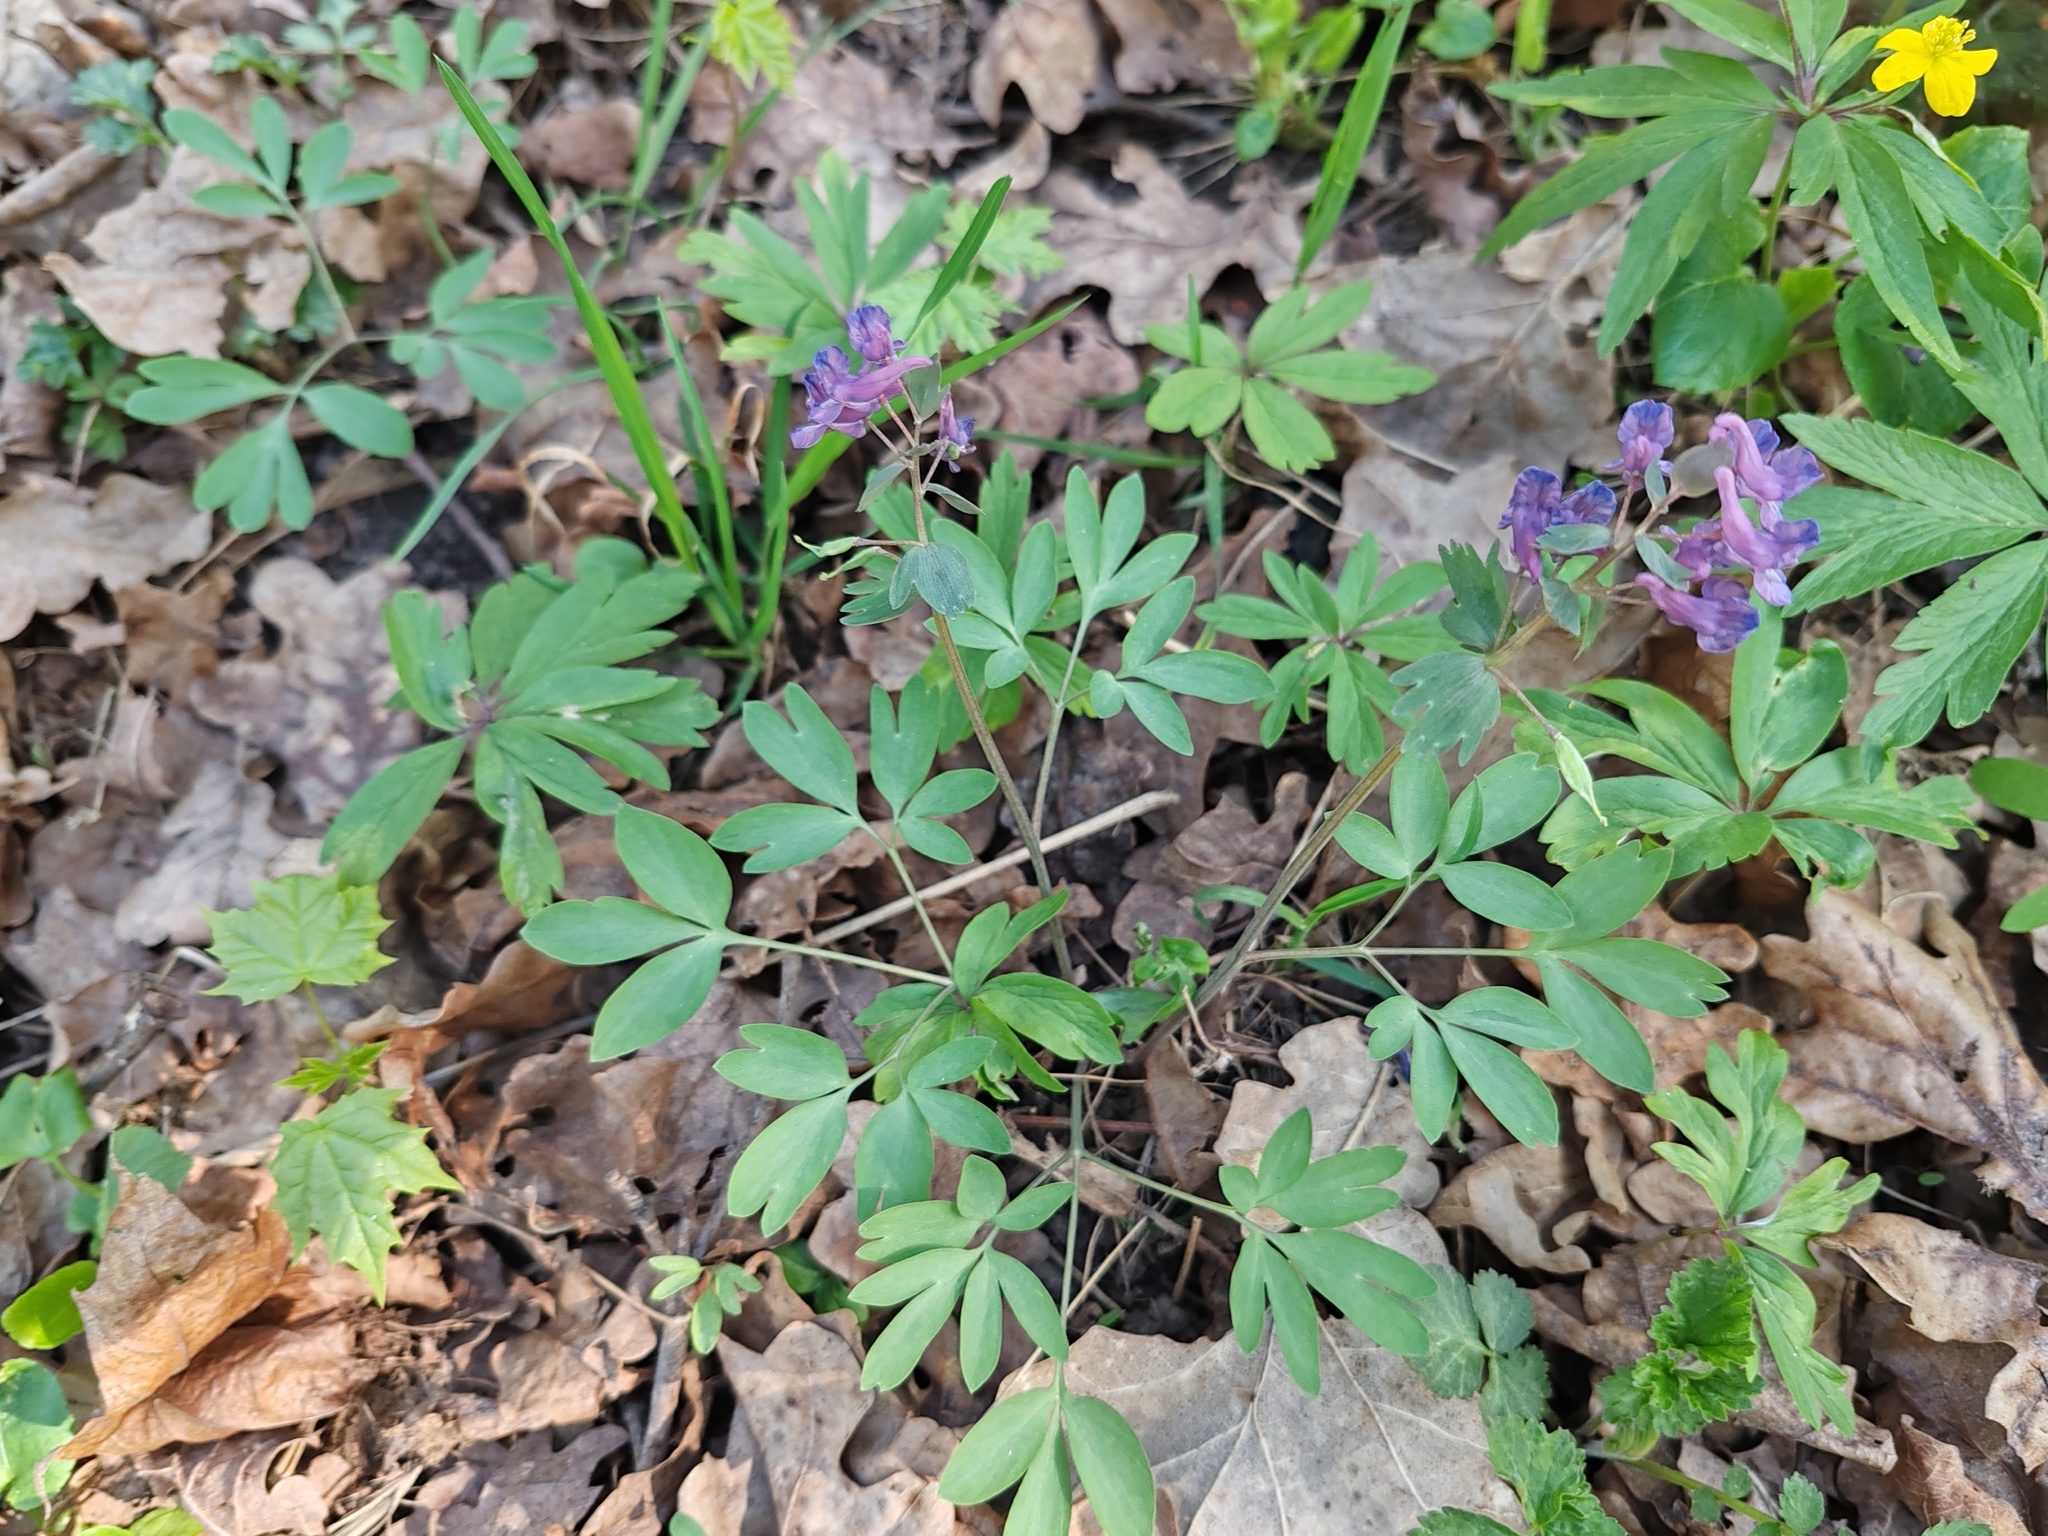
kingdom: Plantae
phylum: Tracheophyta
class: Magnoliopsida
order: Ranunculales
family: Papaveraceae
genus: Corydalis
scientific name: Corydalis solida
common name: Bird-in-a-bush
